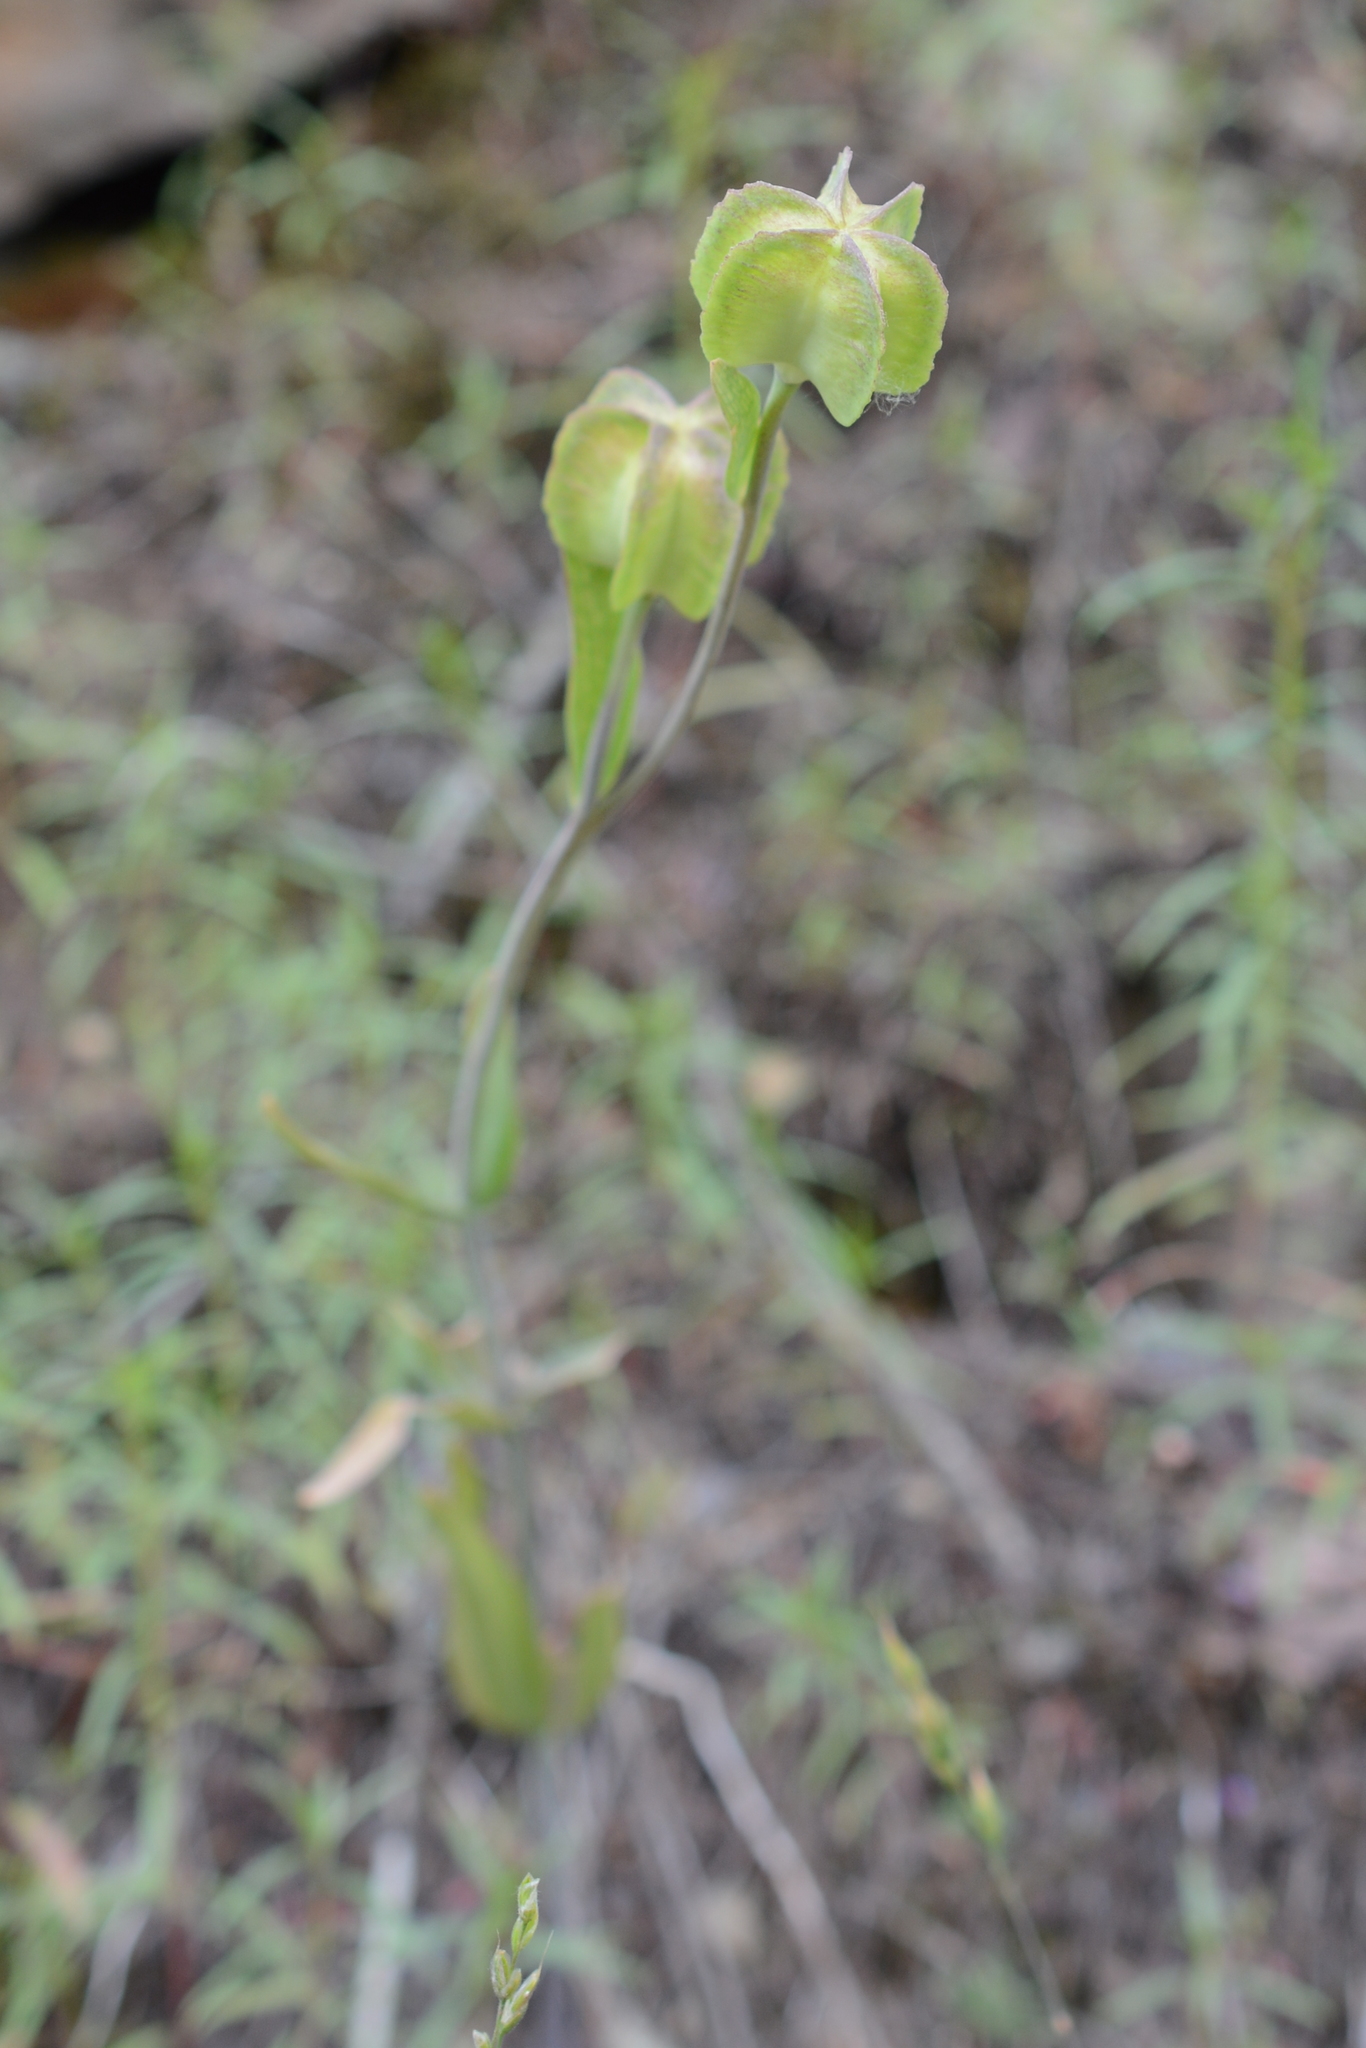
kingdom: Plantae
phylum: Tracheophyta
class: Liliopsida
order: Liliales
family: Liliaceae
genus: Fritillaria
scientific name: Fritillaria affinis
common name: Ojai fritillary
